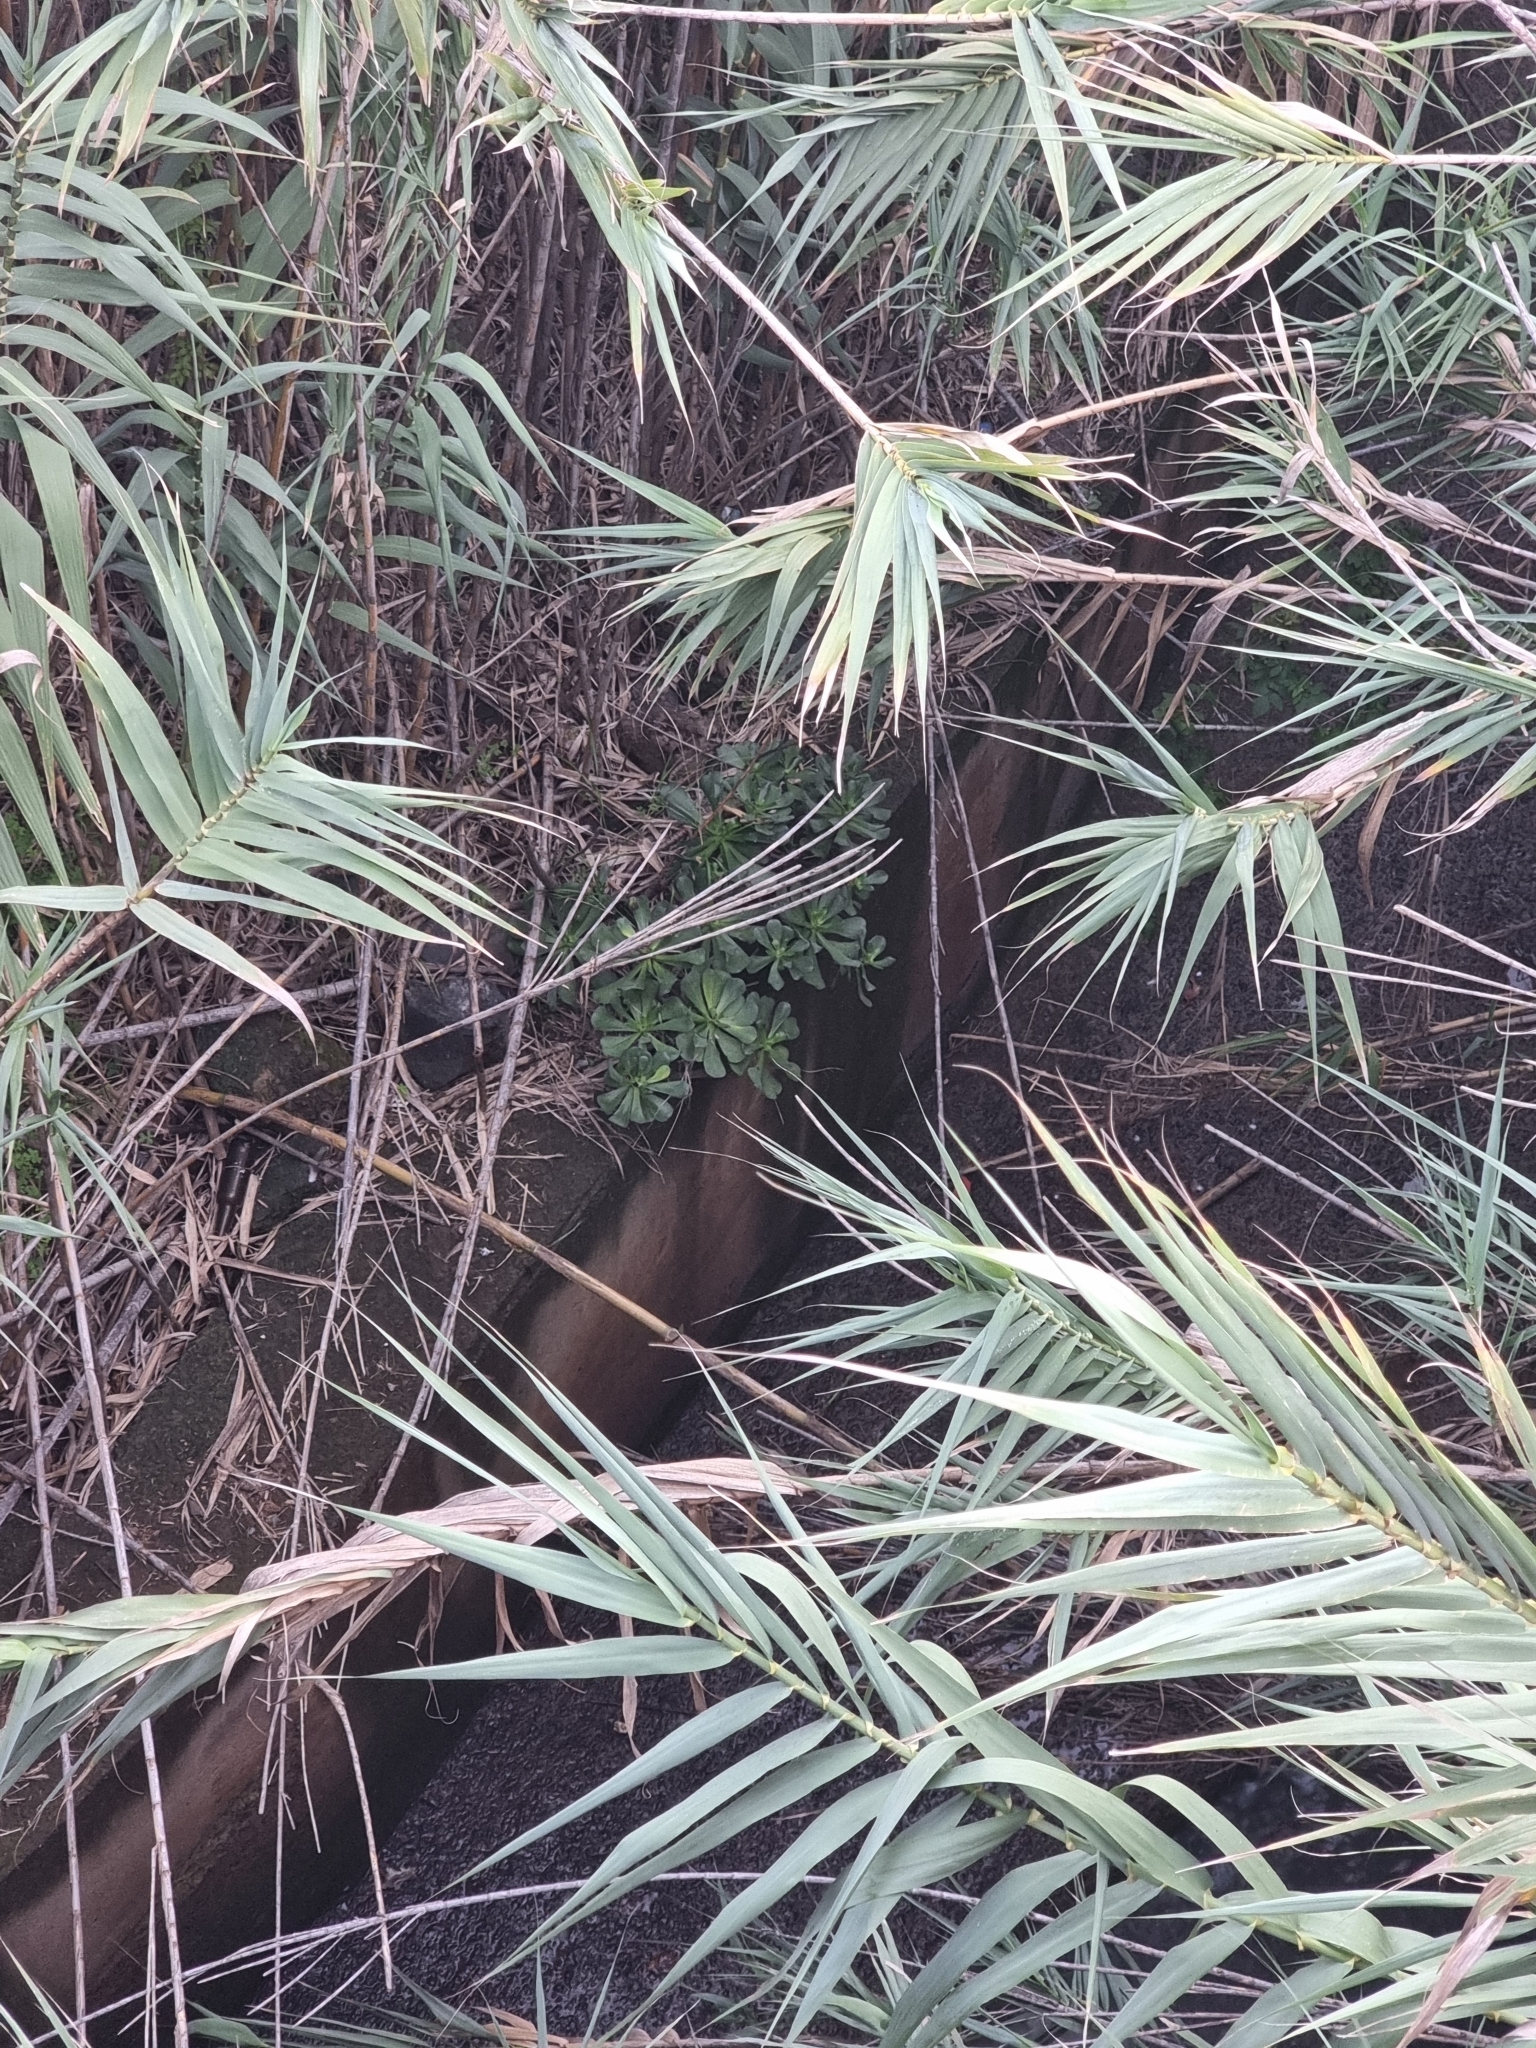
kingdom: Plantae
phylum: Tracheophyta
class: Magnoliopsida
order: Saxifragales
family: Crassulaceae
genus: Aeonium
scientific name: Aeonium glutinosum
